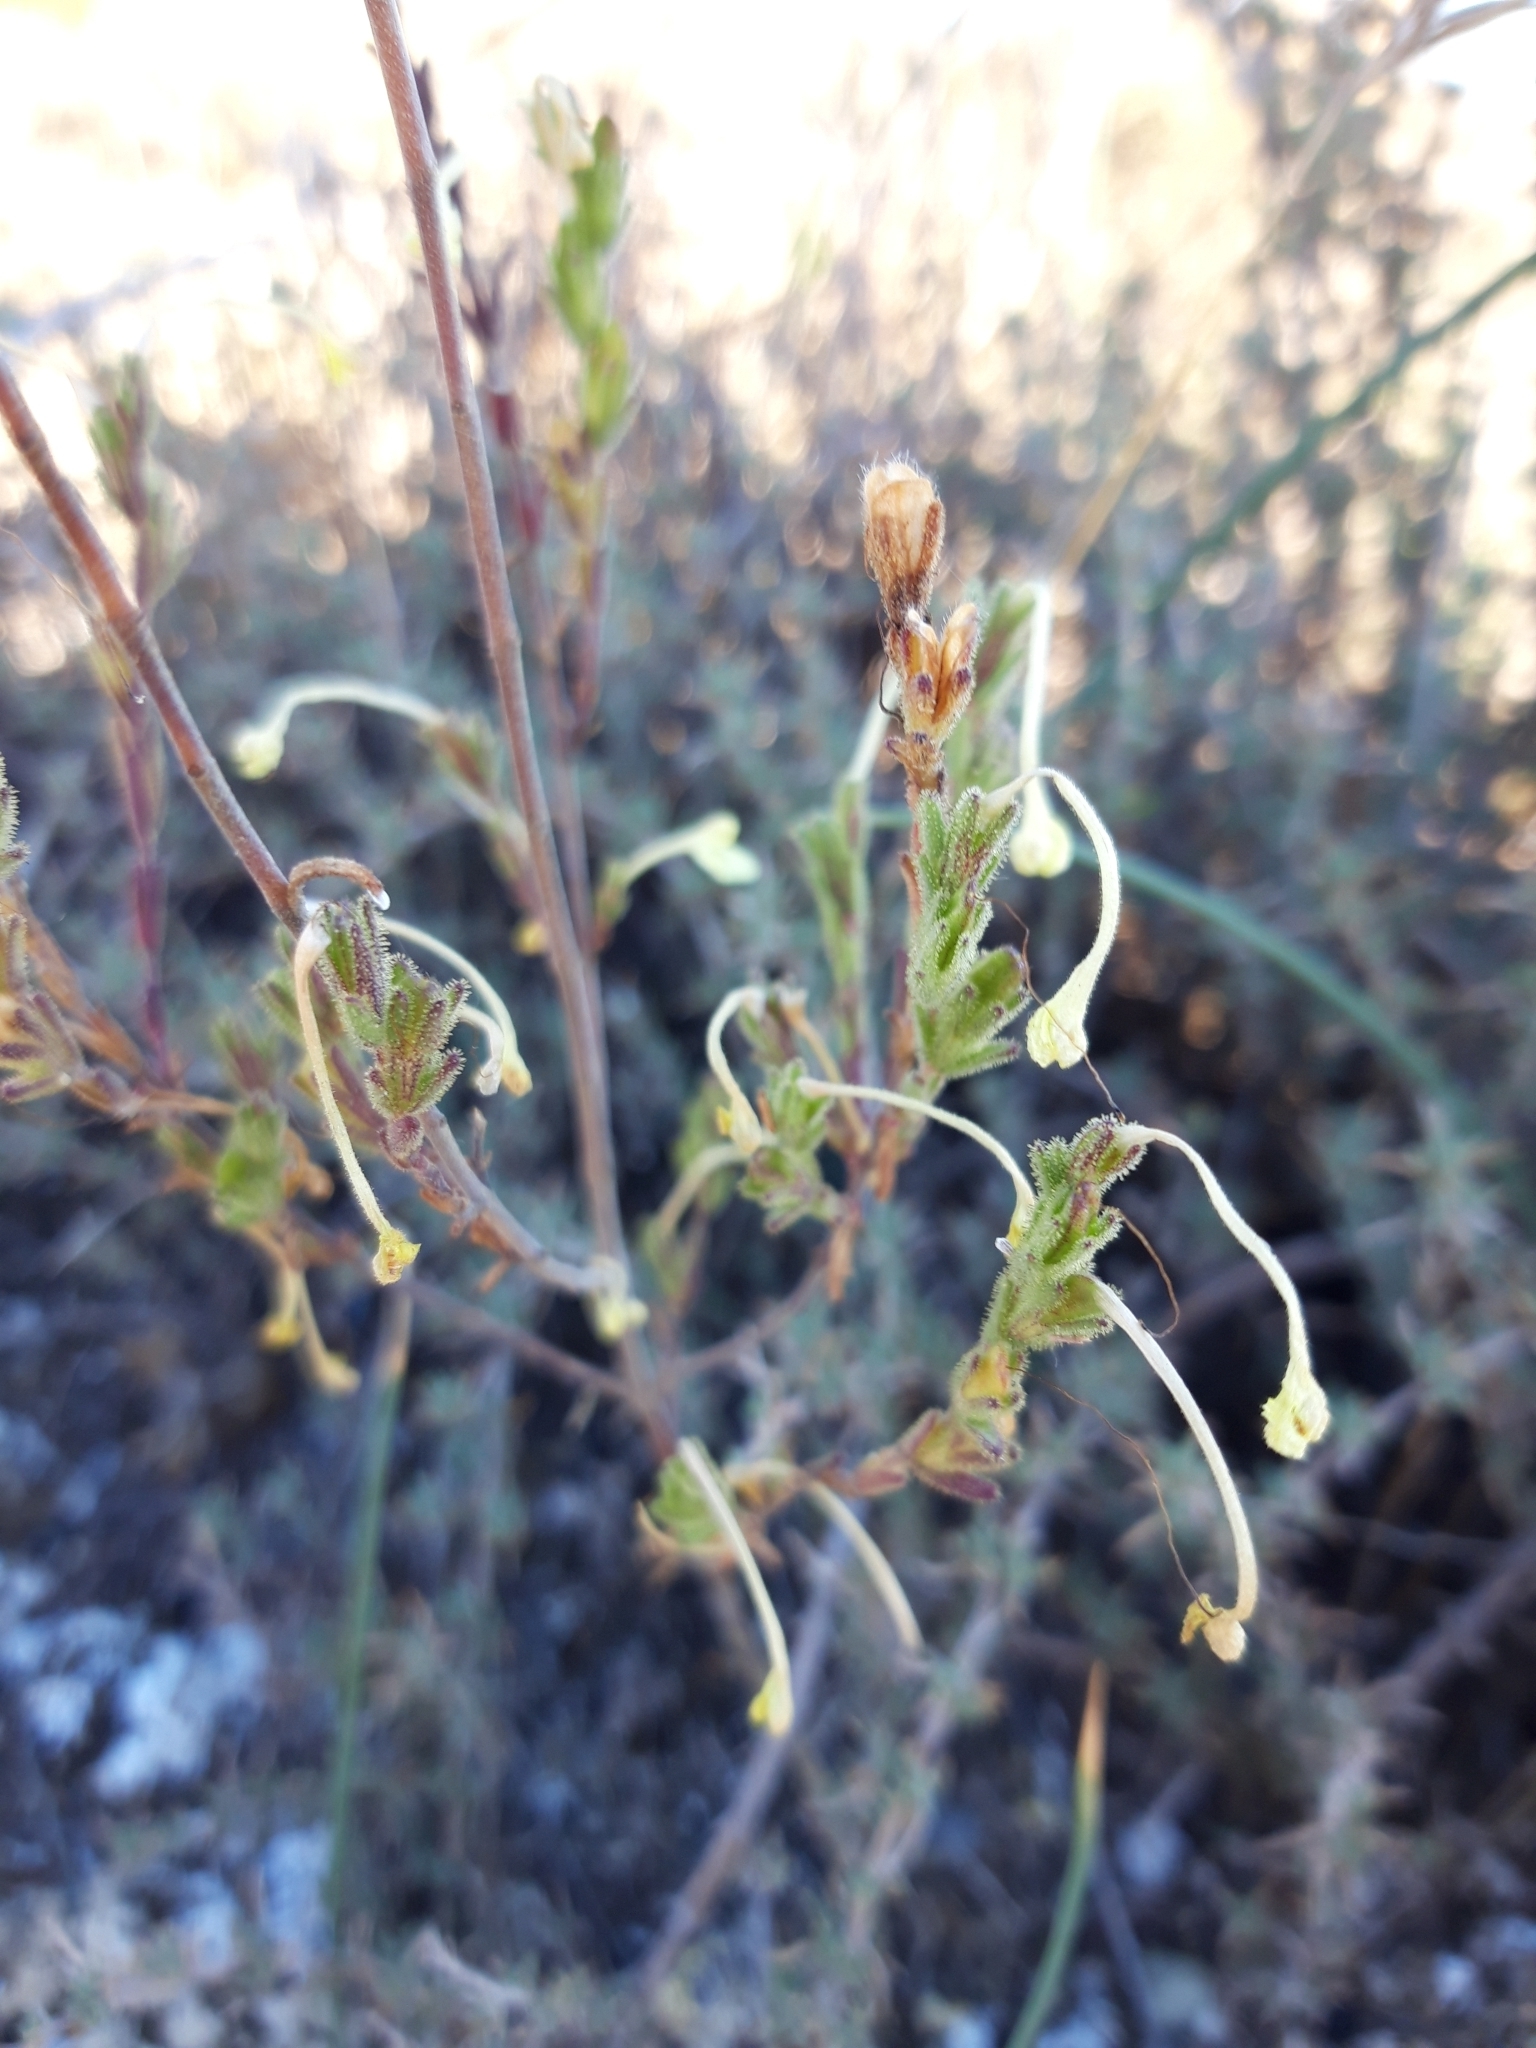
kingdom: Plantae
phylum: Tracheophyta
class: Magnoliopsida
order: Lamiales
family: Orobanchaceae
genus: Odontites
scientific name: Odontites longiflorus
